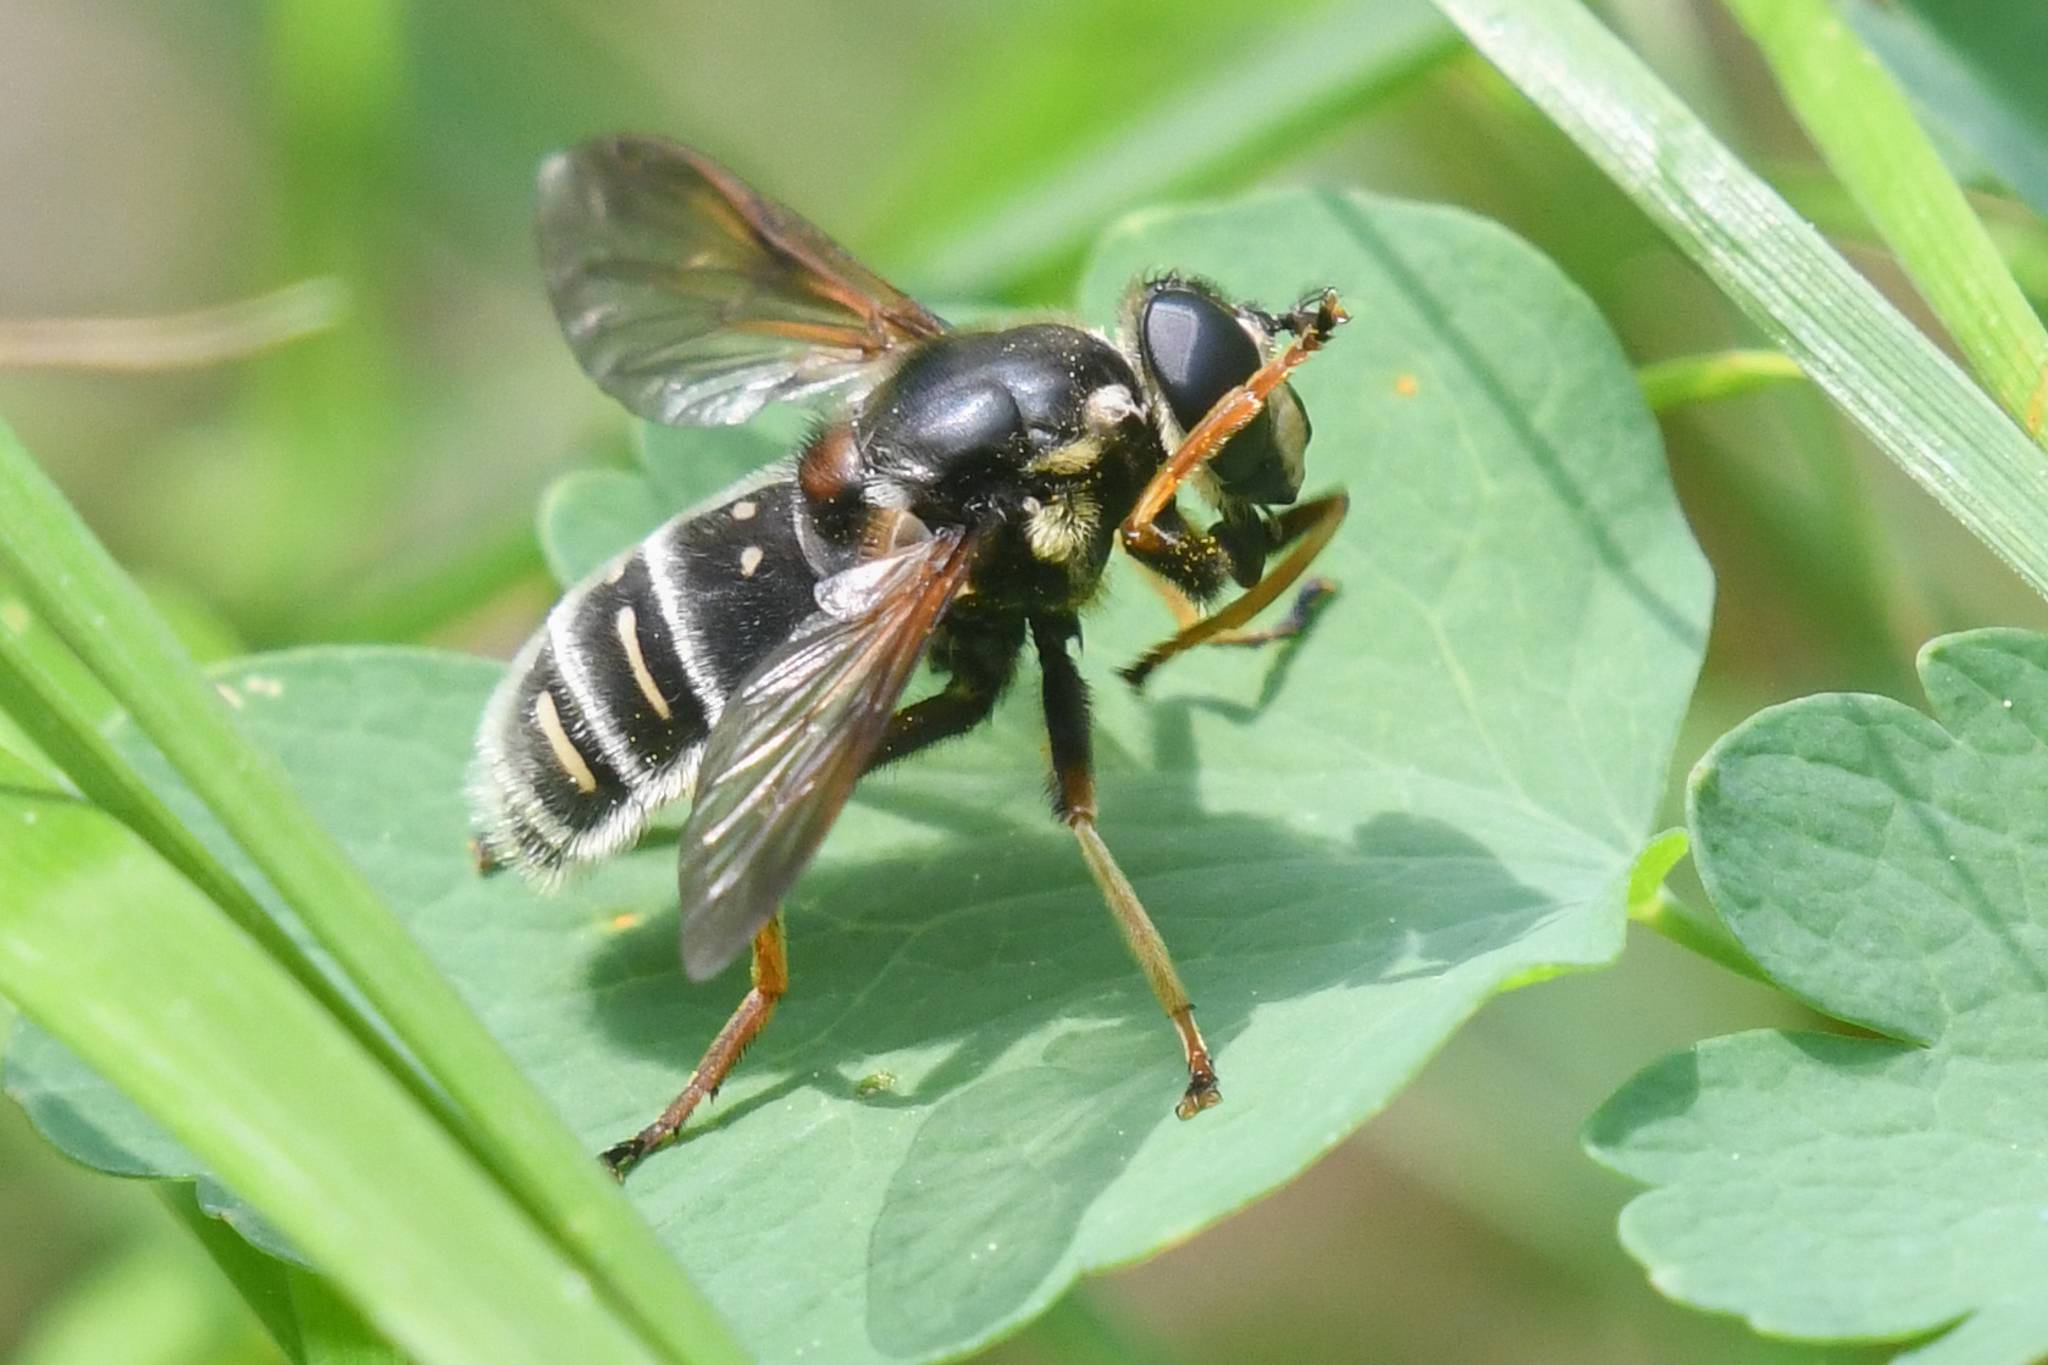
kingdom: Animalia
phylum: Arthropoda
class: Insecta
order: Diptera
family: Syrphidae
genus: Sericomyia
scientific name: Sericomyia militaris
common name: Narrow-banded pond fly
